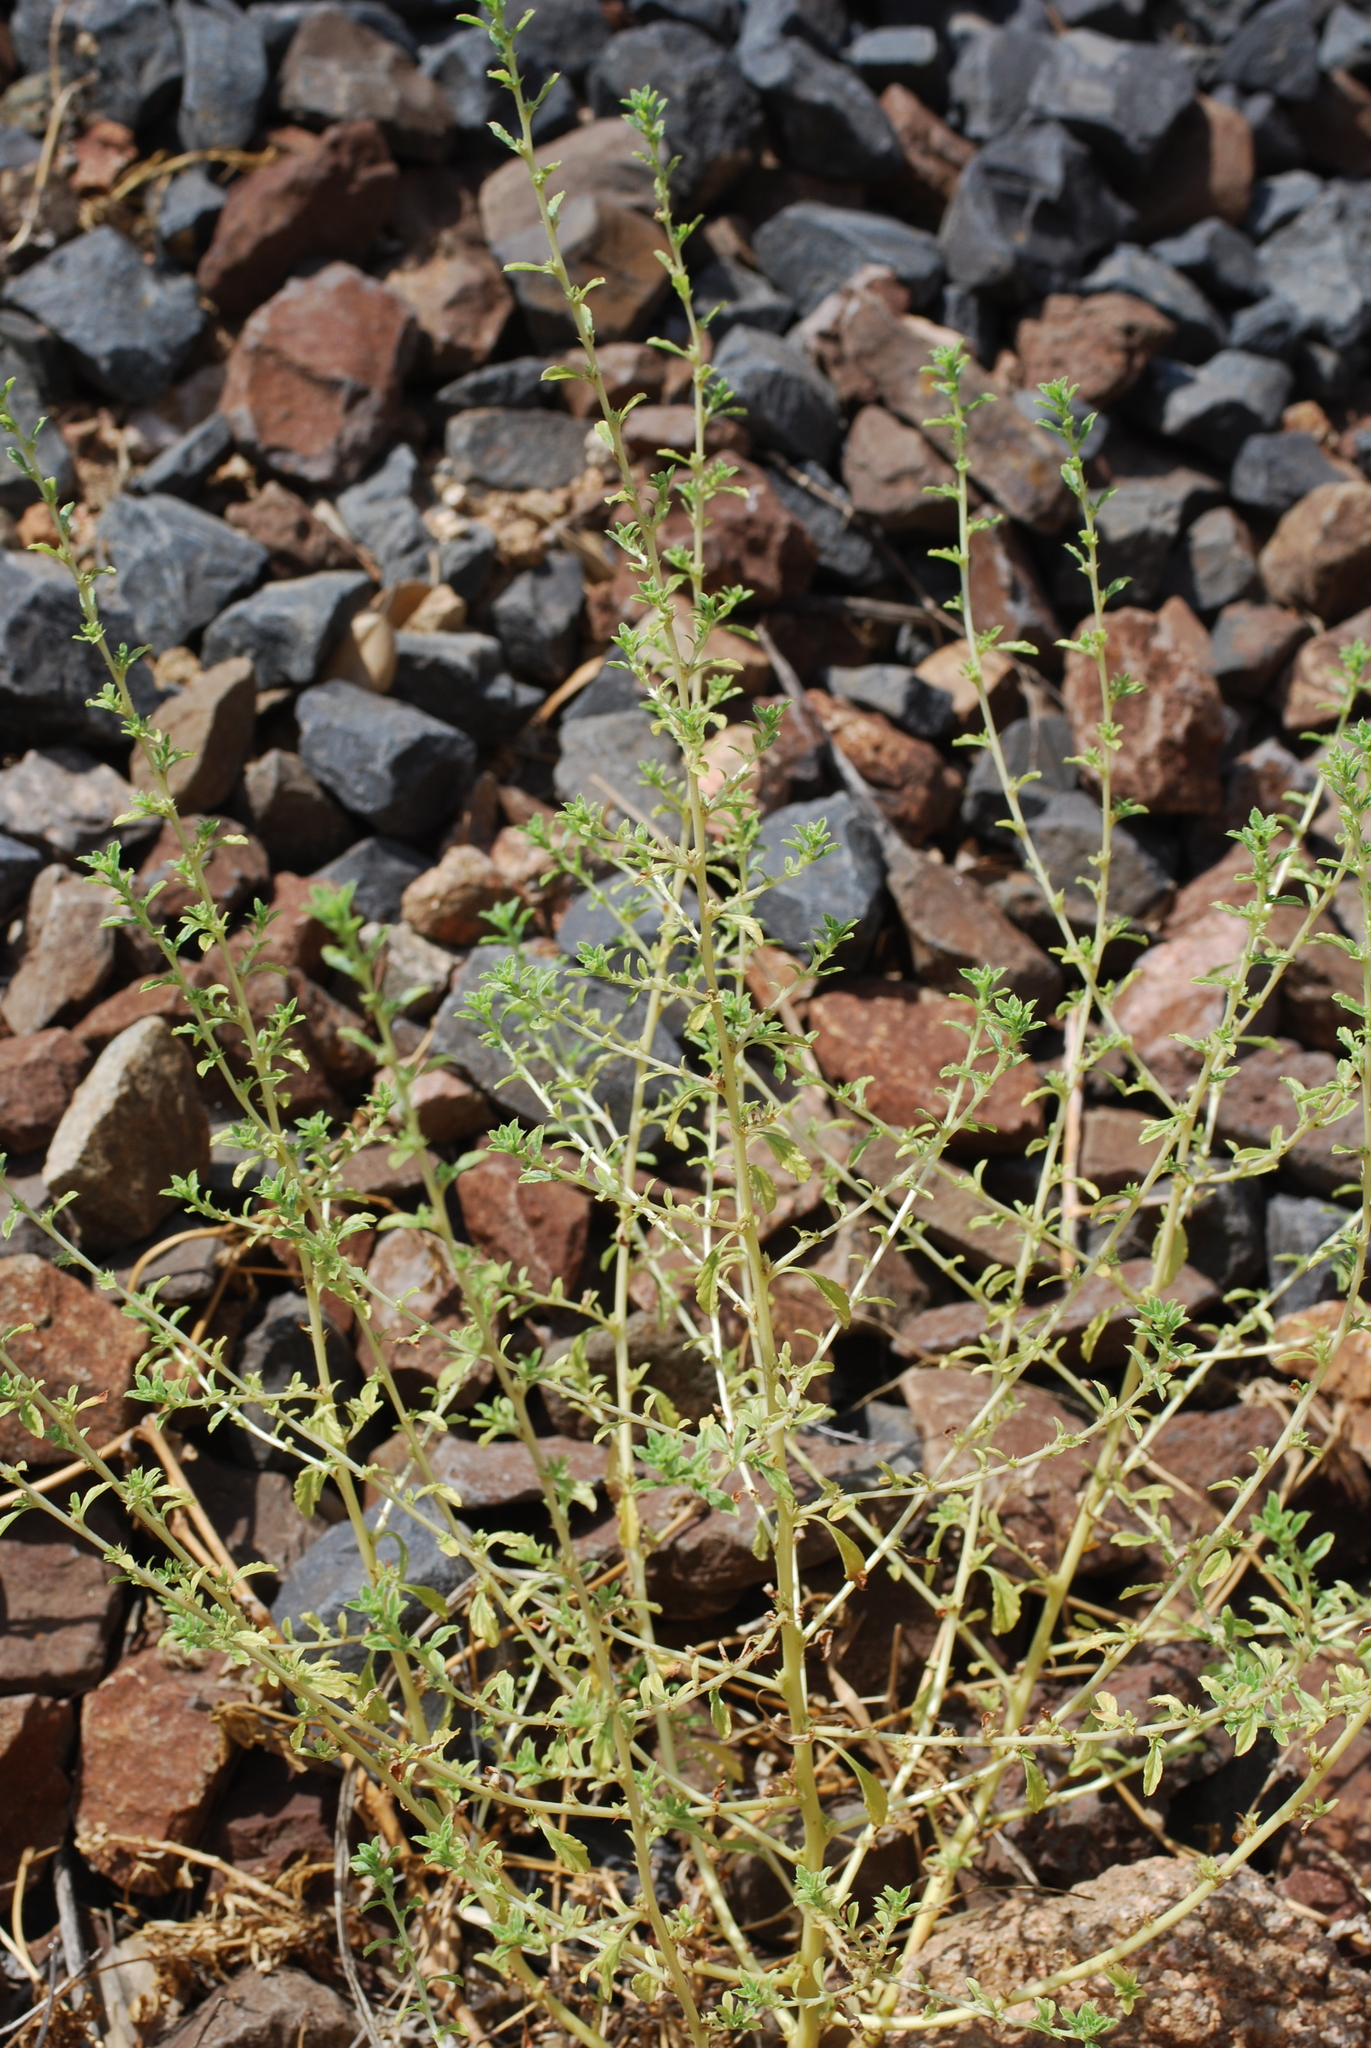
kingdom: Plantae
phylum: Tracheophyta
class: Magnoliopsida
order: Caryophyllales
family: Amaranthaceae
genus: Amaranthus
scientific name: Amaranthus albus
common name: White pigweed
